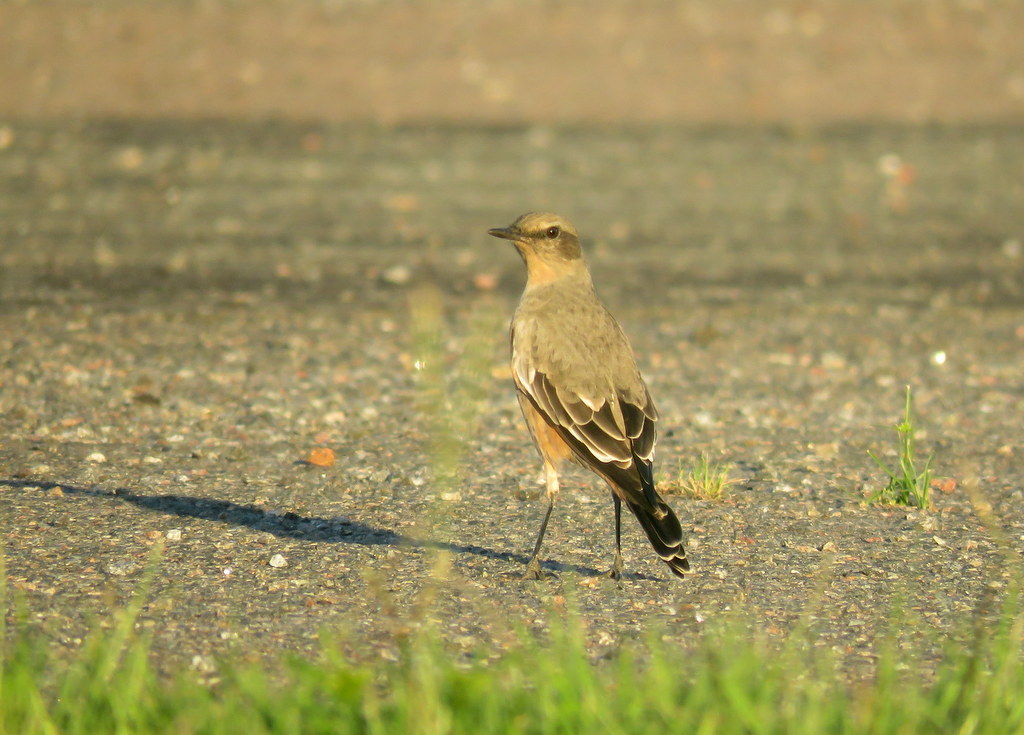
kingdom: Animalia
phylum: Chordata
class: Aves
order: Passeriformes
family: Tyrannidae
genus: Neoxolmis
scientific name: Neoxolmis rufiventris
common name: Chocolate-vented tyrant
